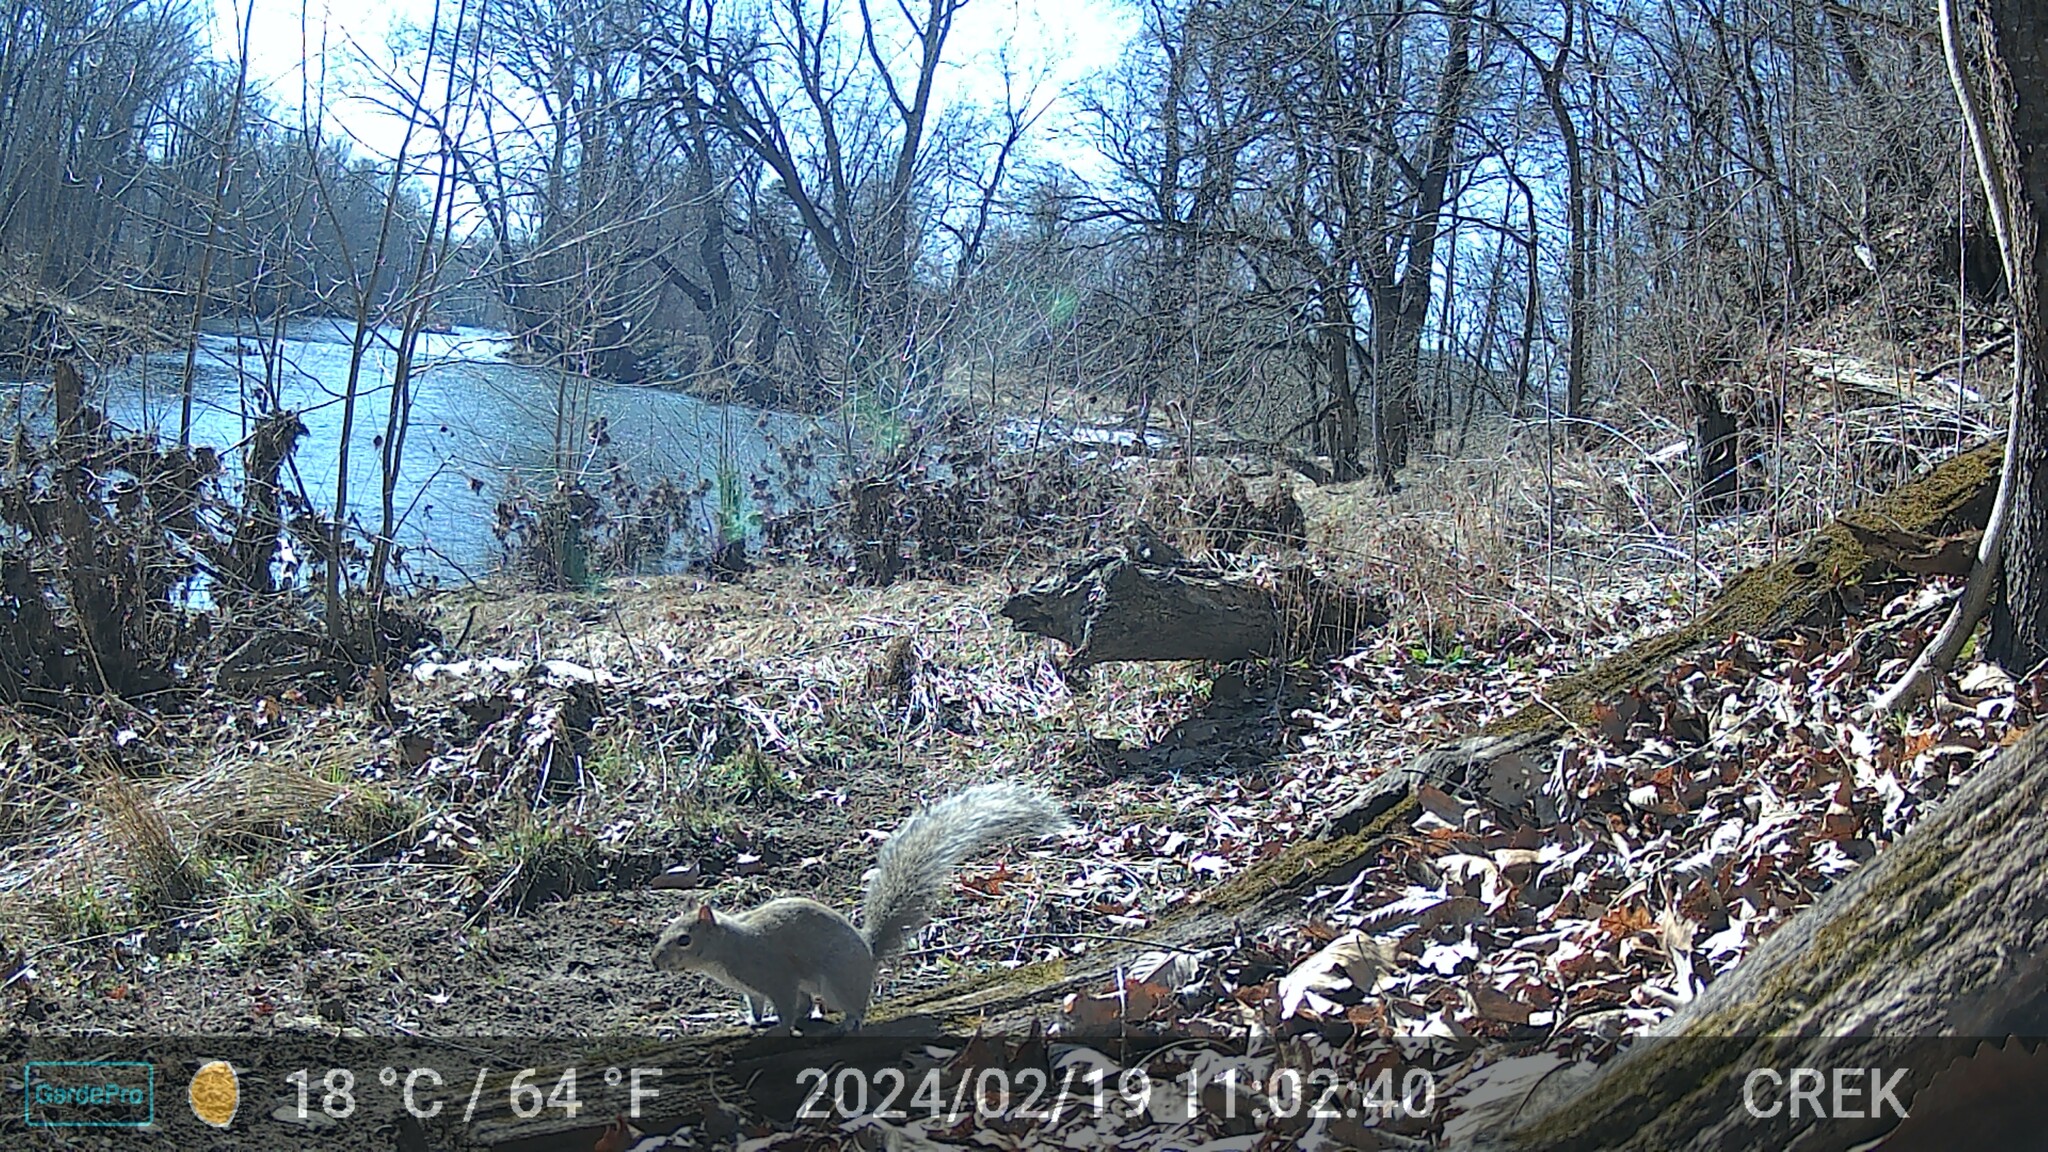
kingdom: Animalia
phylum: Chordata
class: Mammalia
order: Rodentia
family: Sciuridae
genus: Sciurus
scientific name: Sciurus carolinensis
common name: Eastern gray squirrel
